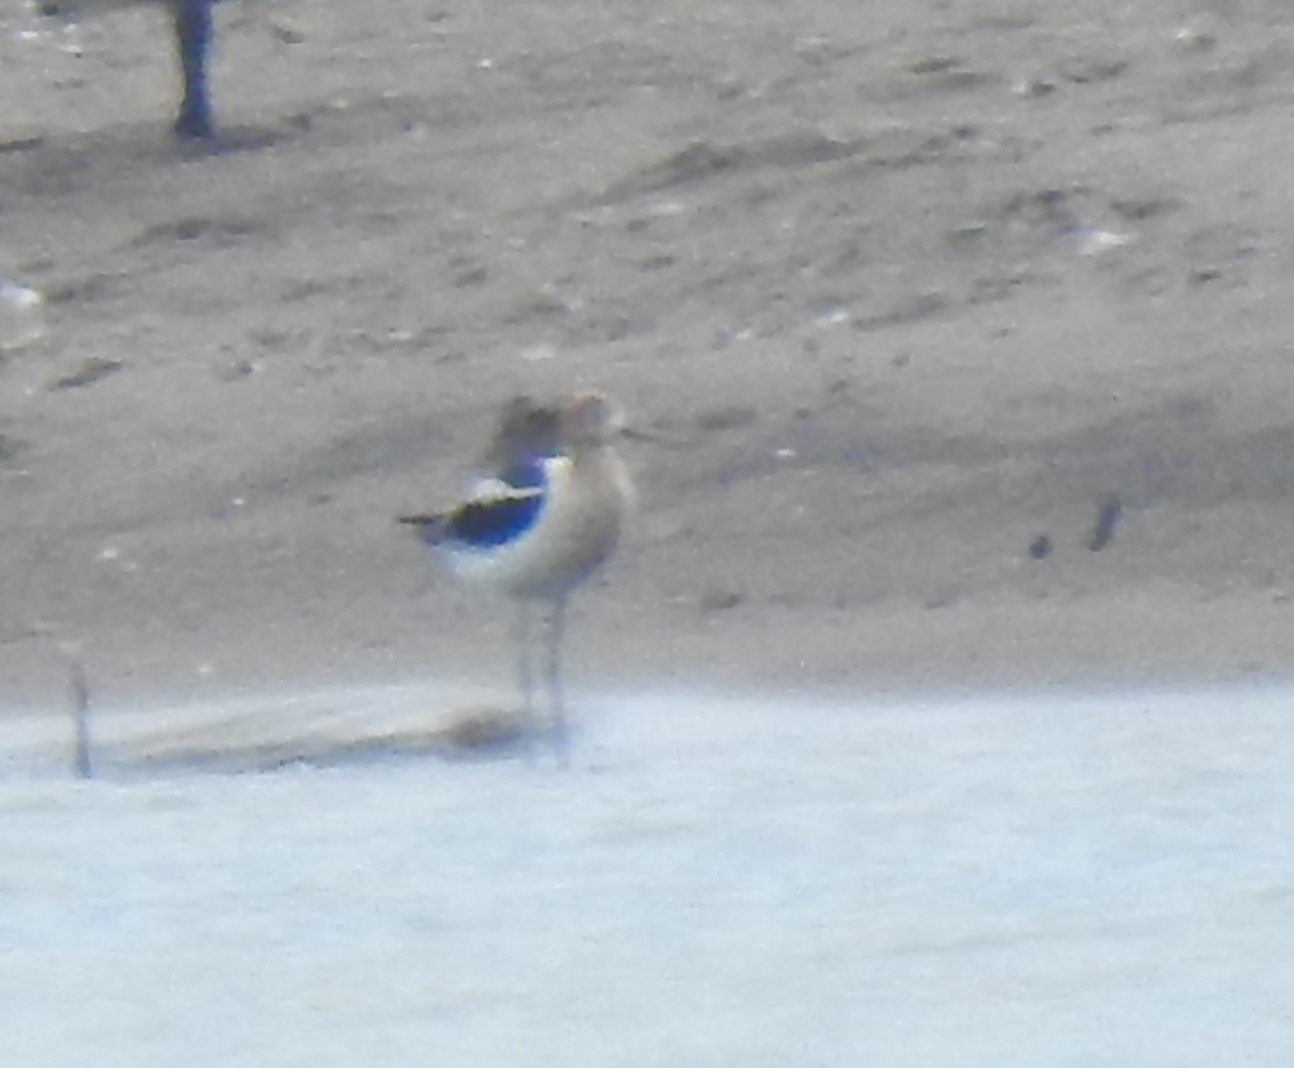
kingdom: Animalia
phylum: Chordata
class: Aves
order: Charadriiformes
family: Recurvirostridae
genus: Recurvirostra
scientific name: Recurvirostra americana
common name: American avocet
